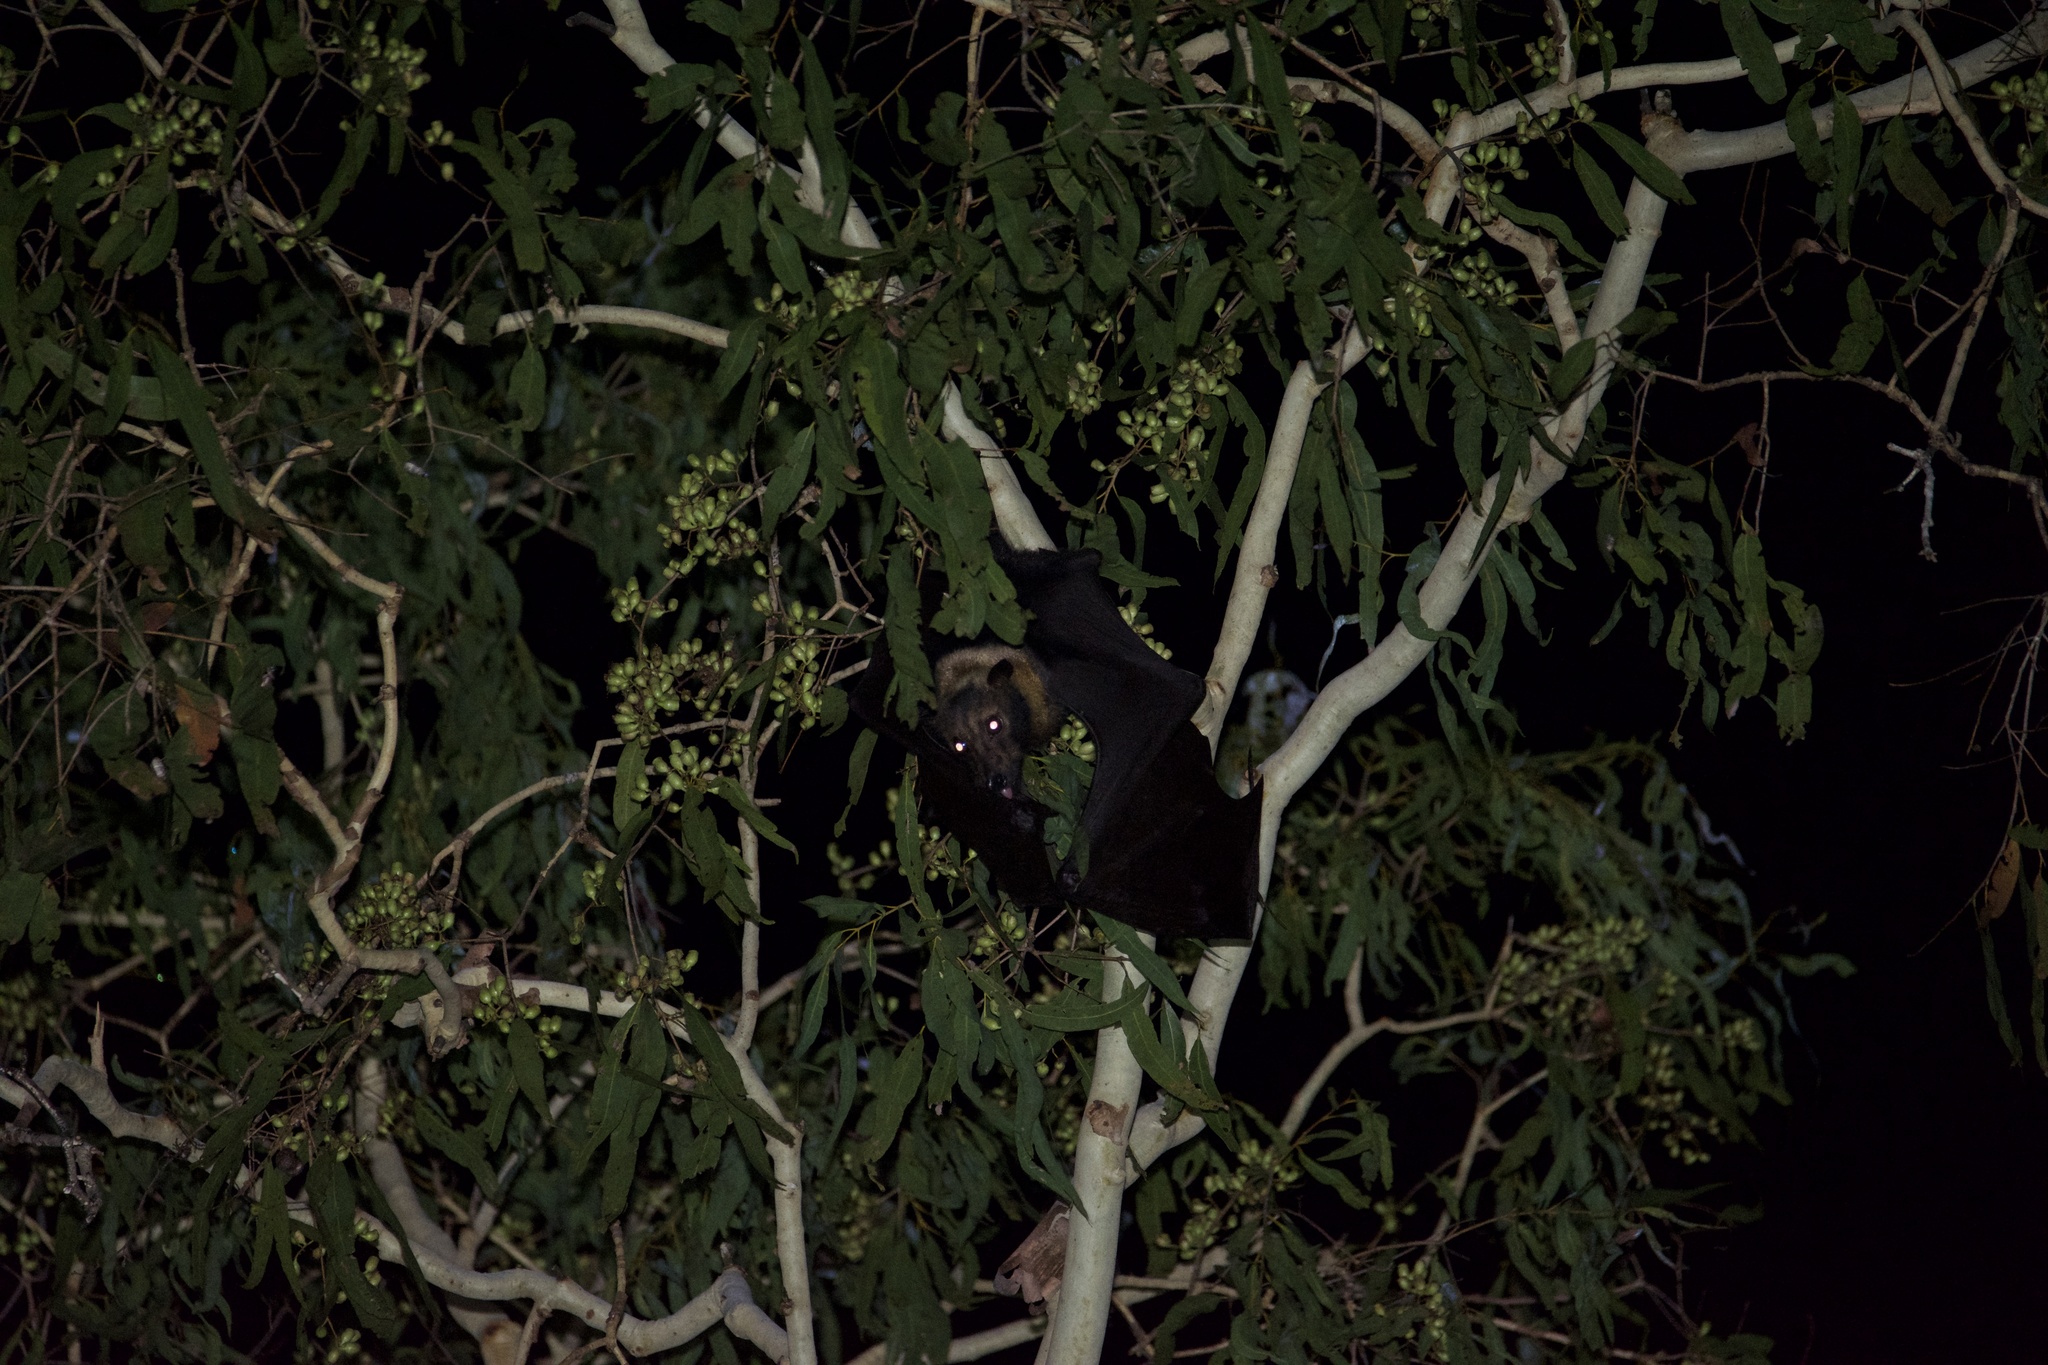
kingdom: Animalia
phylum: Chordata
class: Mammalia
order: Chiroptera
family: Pteropodidae
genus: Pteropus
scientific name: Pteropus conspicillatus
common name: Spectacled flying fox
